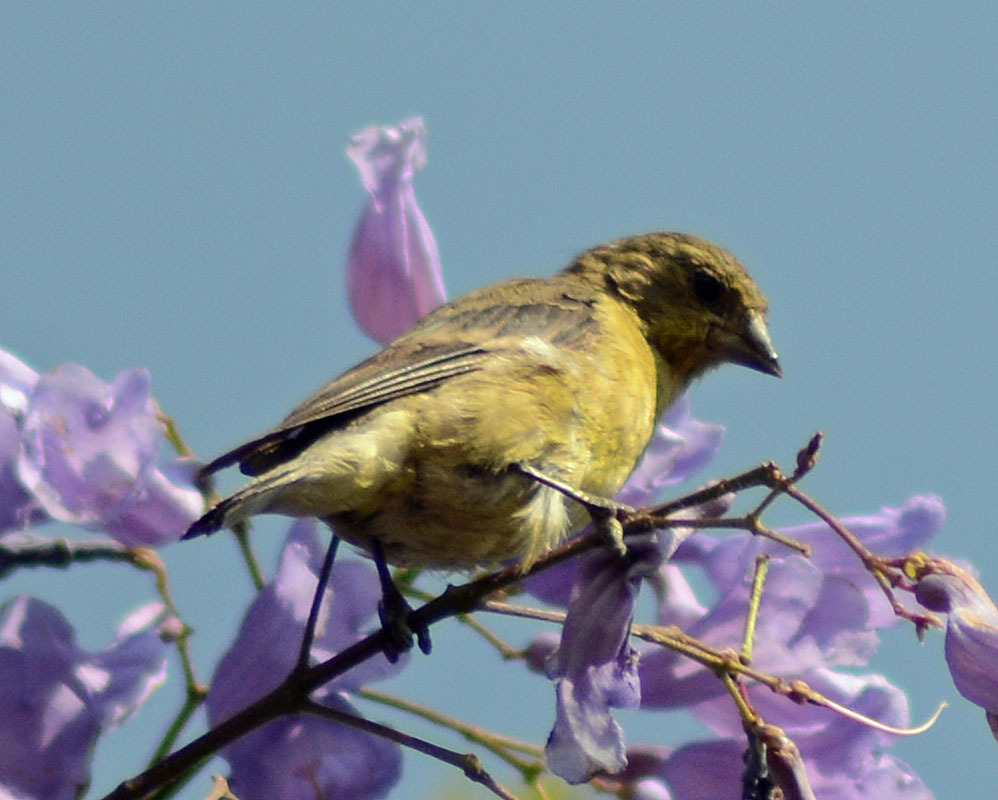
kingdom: Animalia
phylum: Chordata
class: Aves
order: Passeriformes
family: Fringillidae
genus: Spinus
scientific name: Spinus psaltria
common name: Lesser goldfinch
